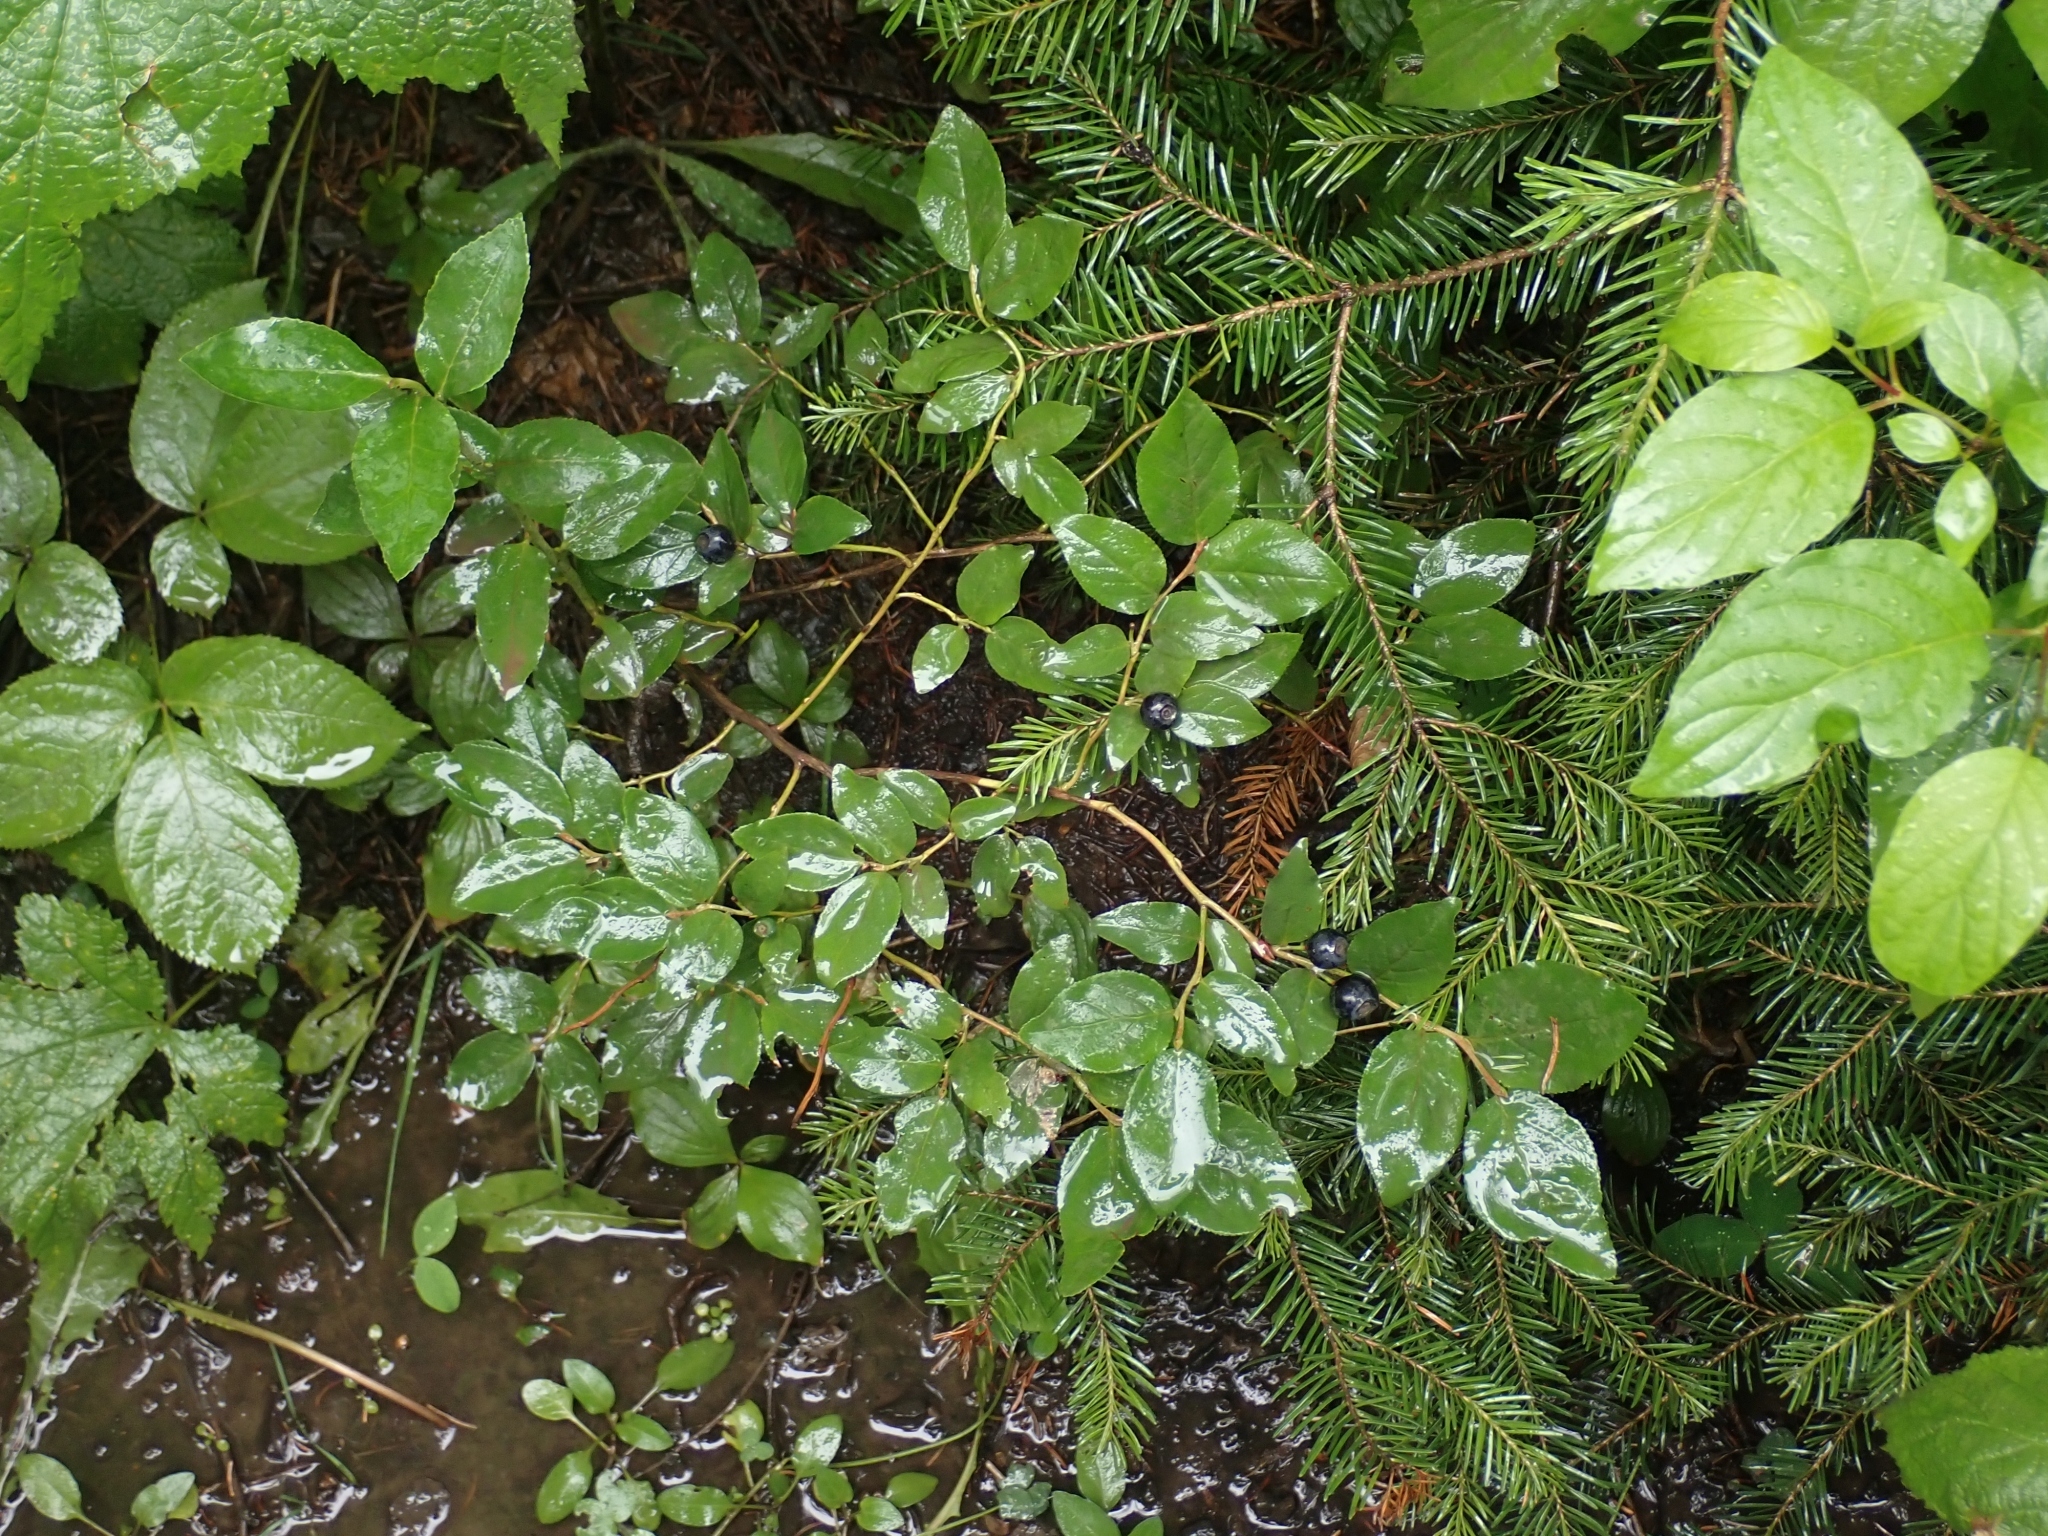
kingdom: Plantae
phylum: Tracheophyta
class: Magnoliopsida
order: Ericales
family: Ericaceae
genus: Vaccinium
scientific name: Vaccinium membranaceum
